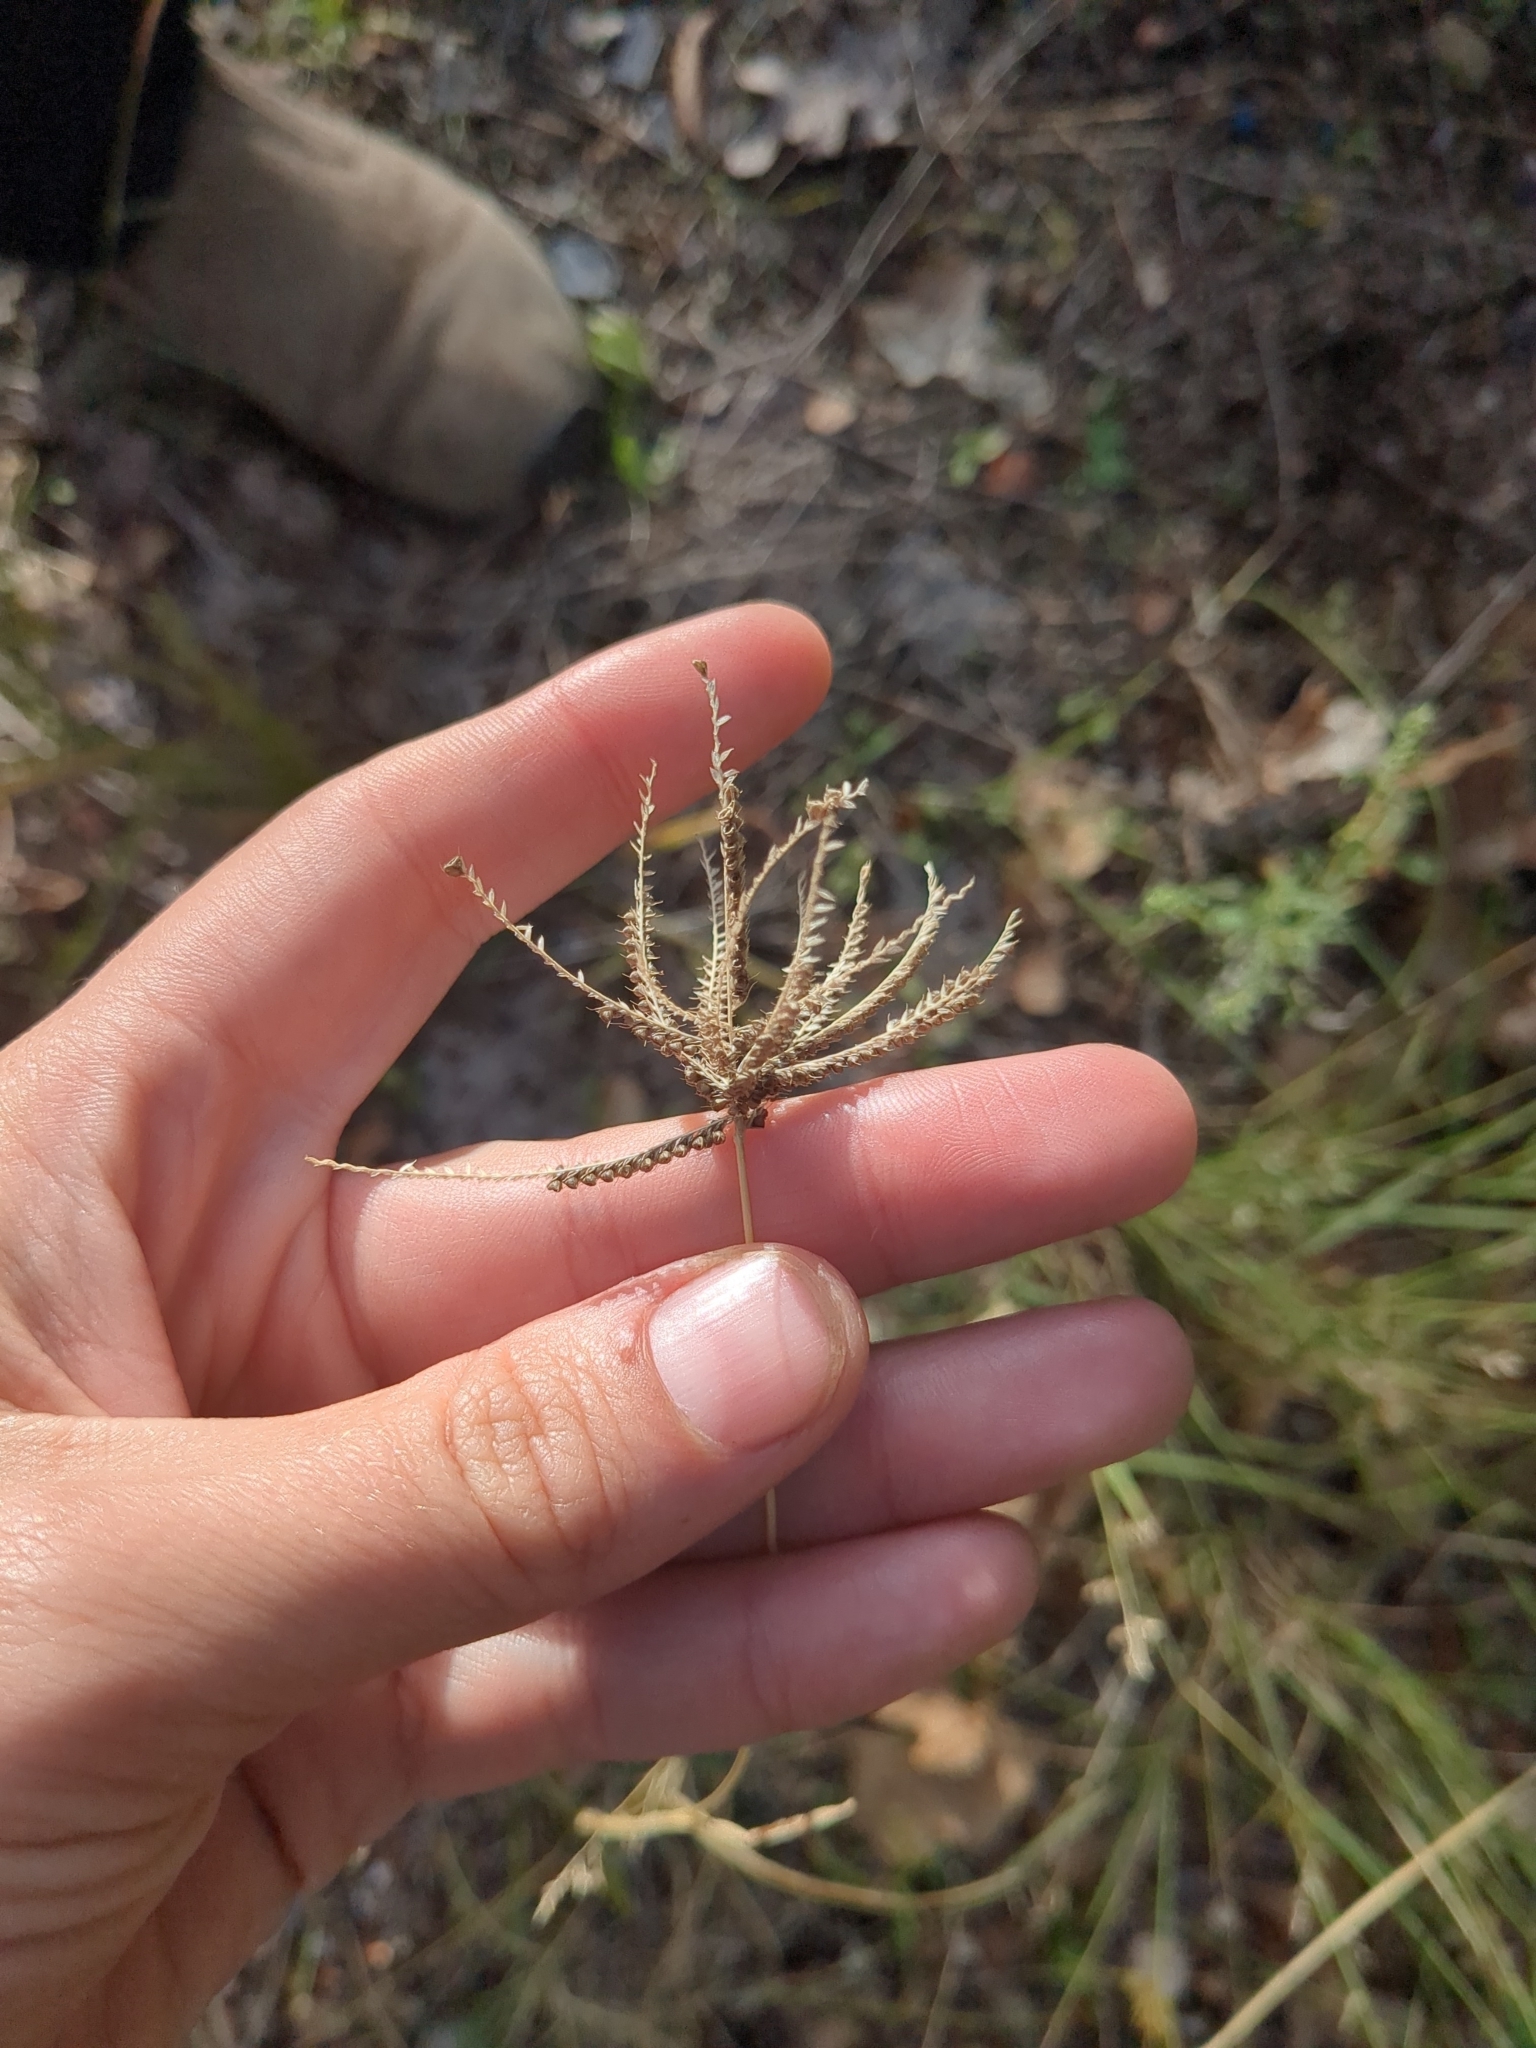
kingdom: Plantae
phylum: Tracheophyta
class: Liliopsida
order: Poales
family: Poaceae
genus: Chloris
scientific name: Chloris cucullata
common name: Hooded windmill grass
